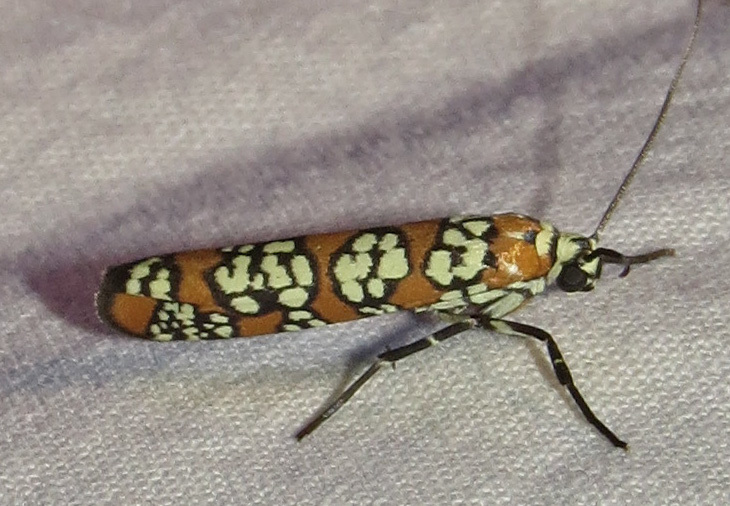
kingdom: Animalia
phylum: Arthropoda
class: Insecta
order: Lepidoptera
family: Attevidae
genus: Atteva
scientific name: Atteva punctella
